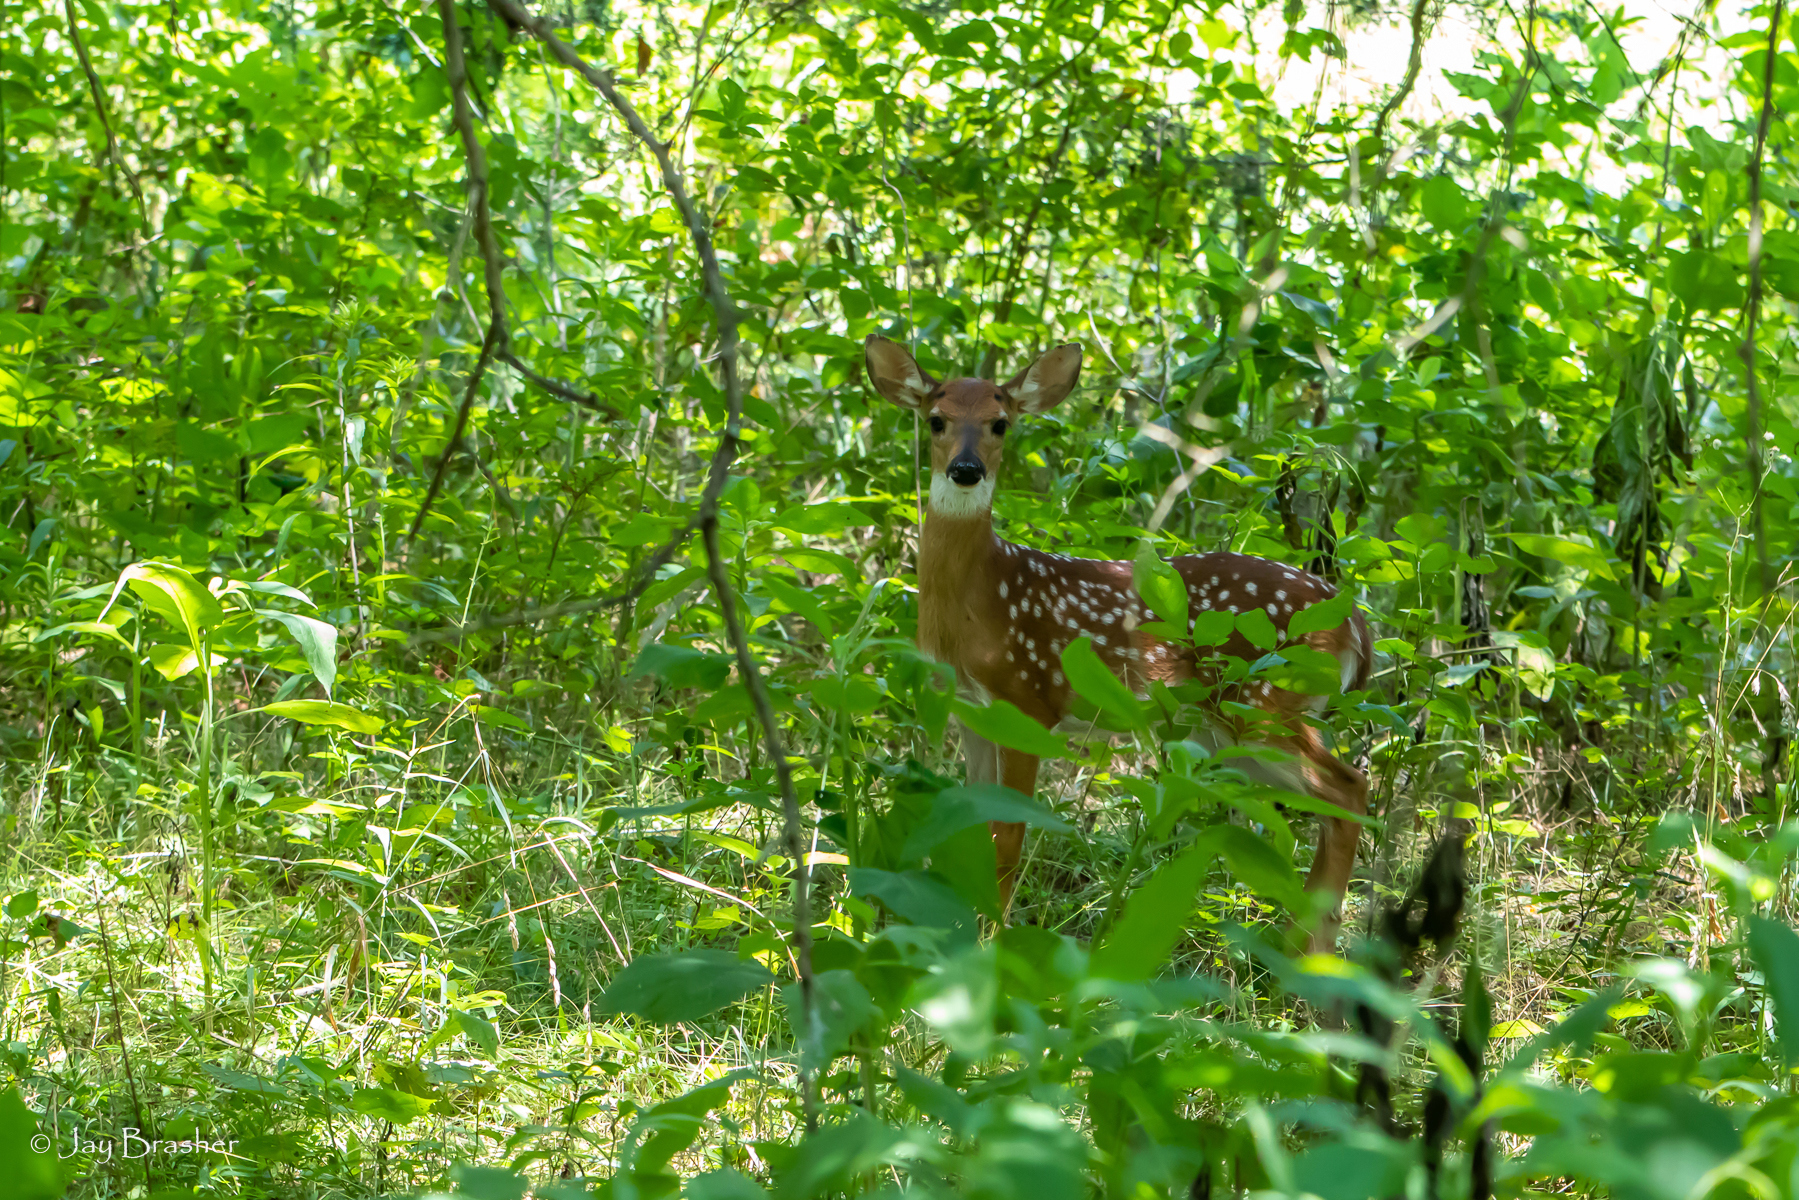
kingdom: Animalia
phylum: Chordata
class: Mammalia
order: Artiodactyla
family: Cervidae
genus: Odocoileus
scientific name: Odocoileus virginianus
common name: White-tailed deer
